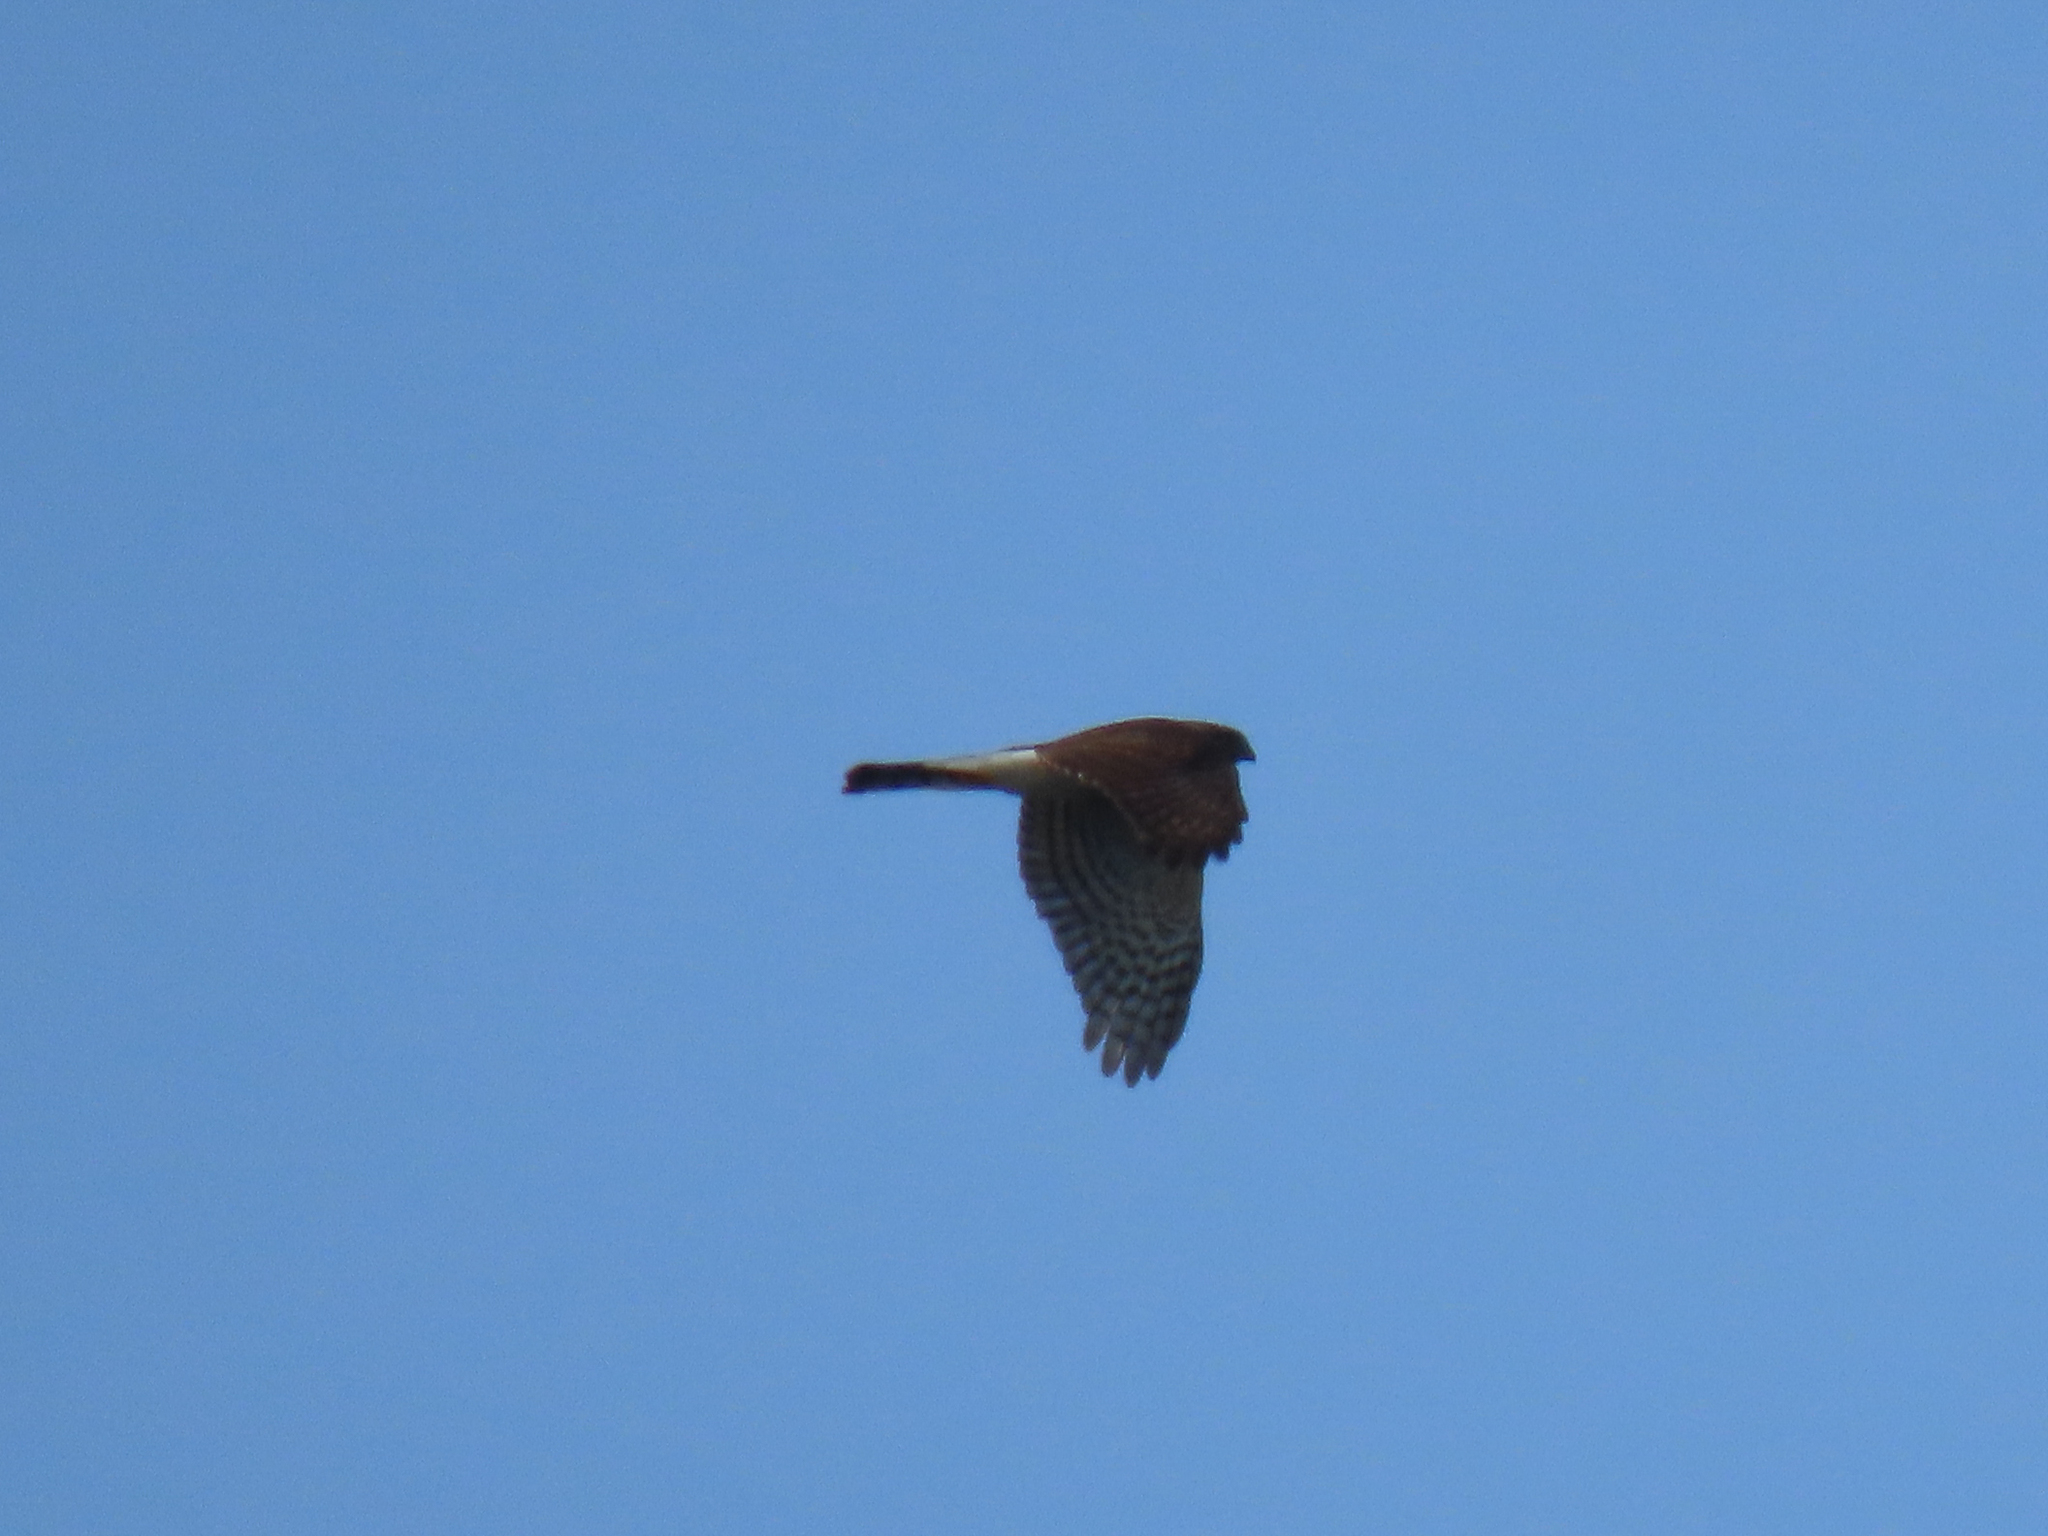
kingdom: Animalia
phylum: Chordata
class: Aves
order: Accipitriformes
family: Accipitridae
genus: Accipiter
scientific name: Accipiter striatus
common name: Sharp-shinned hawk
